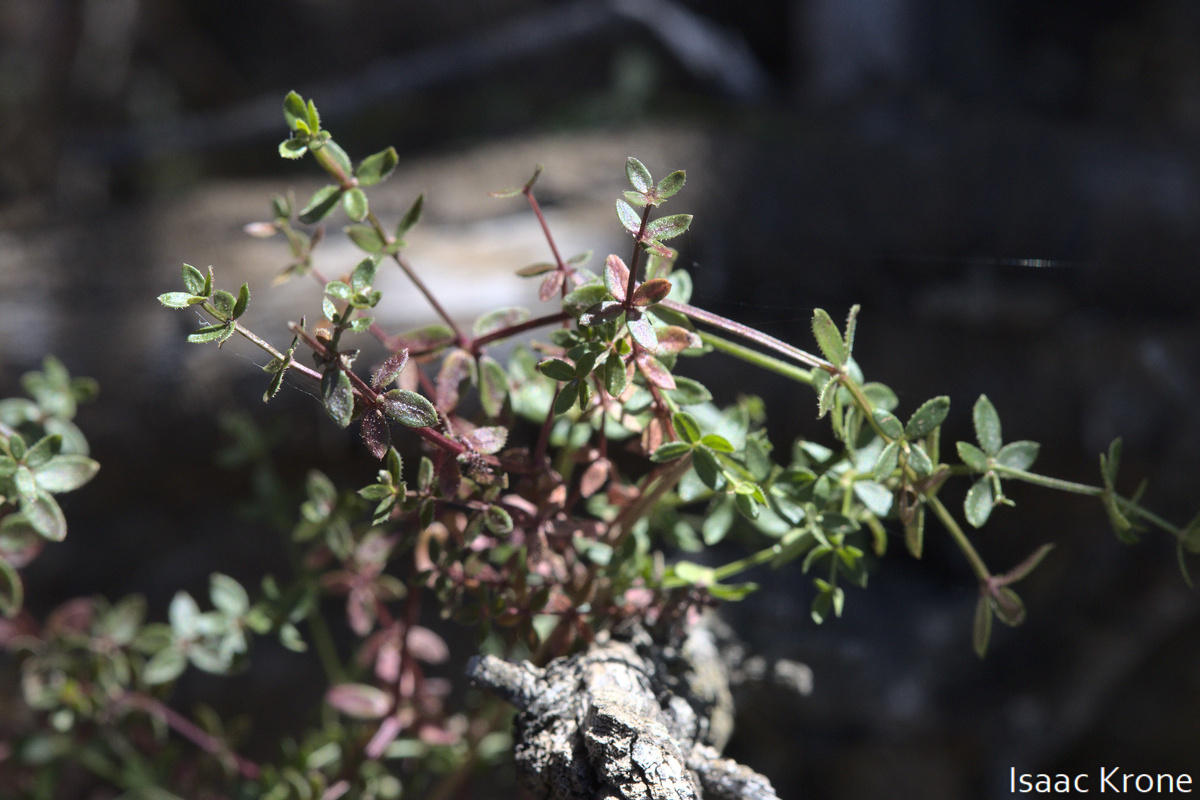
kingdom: Plantae
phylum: Tracheophyta
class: Magnoliopsida
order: Gentianales
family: Rubiaceae
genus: Galium
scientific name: Galium porrigens
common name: Climbing bedstraw
